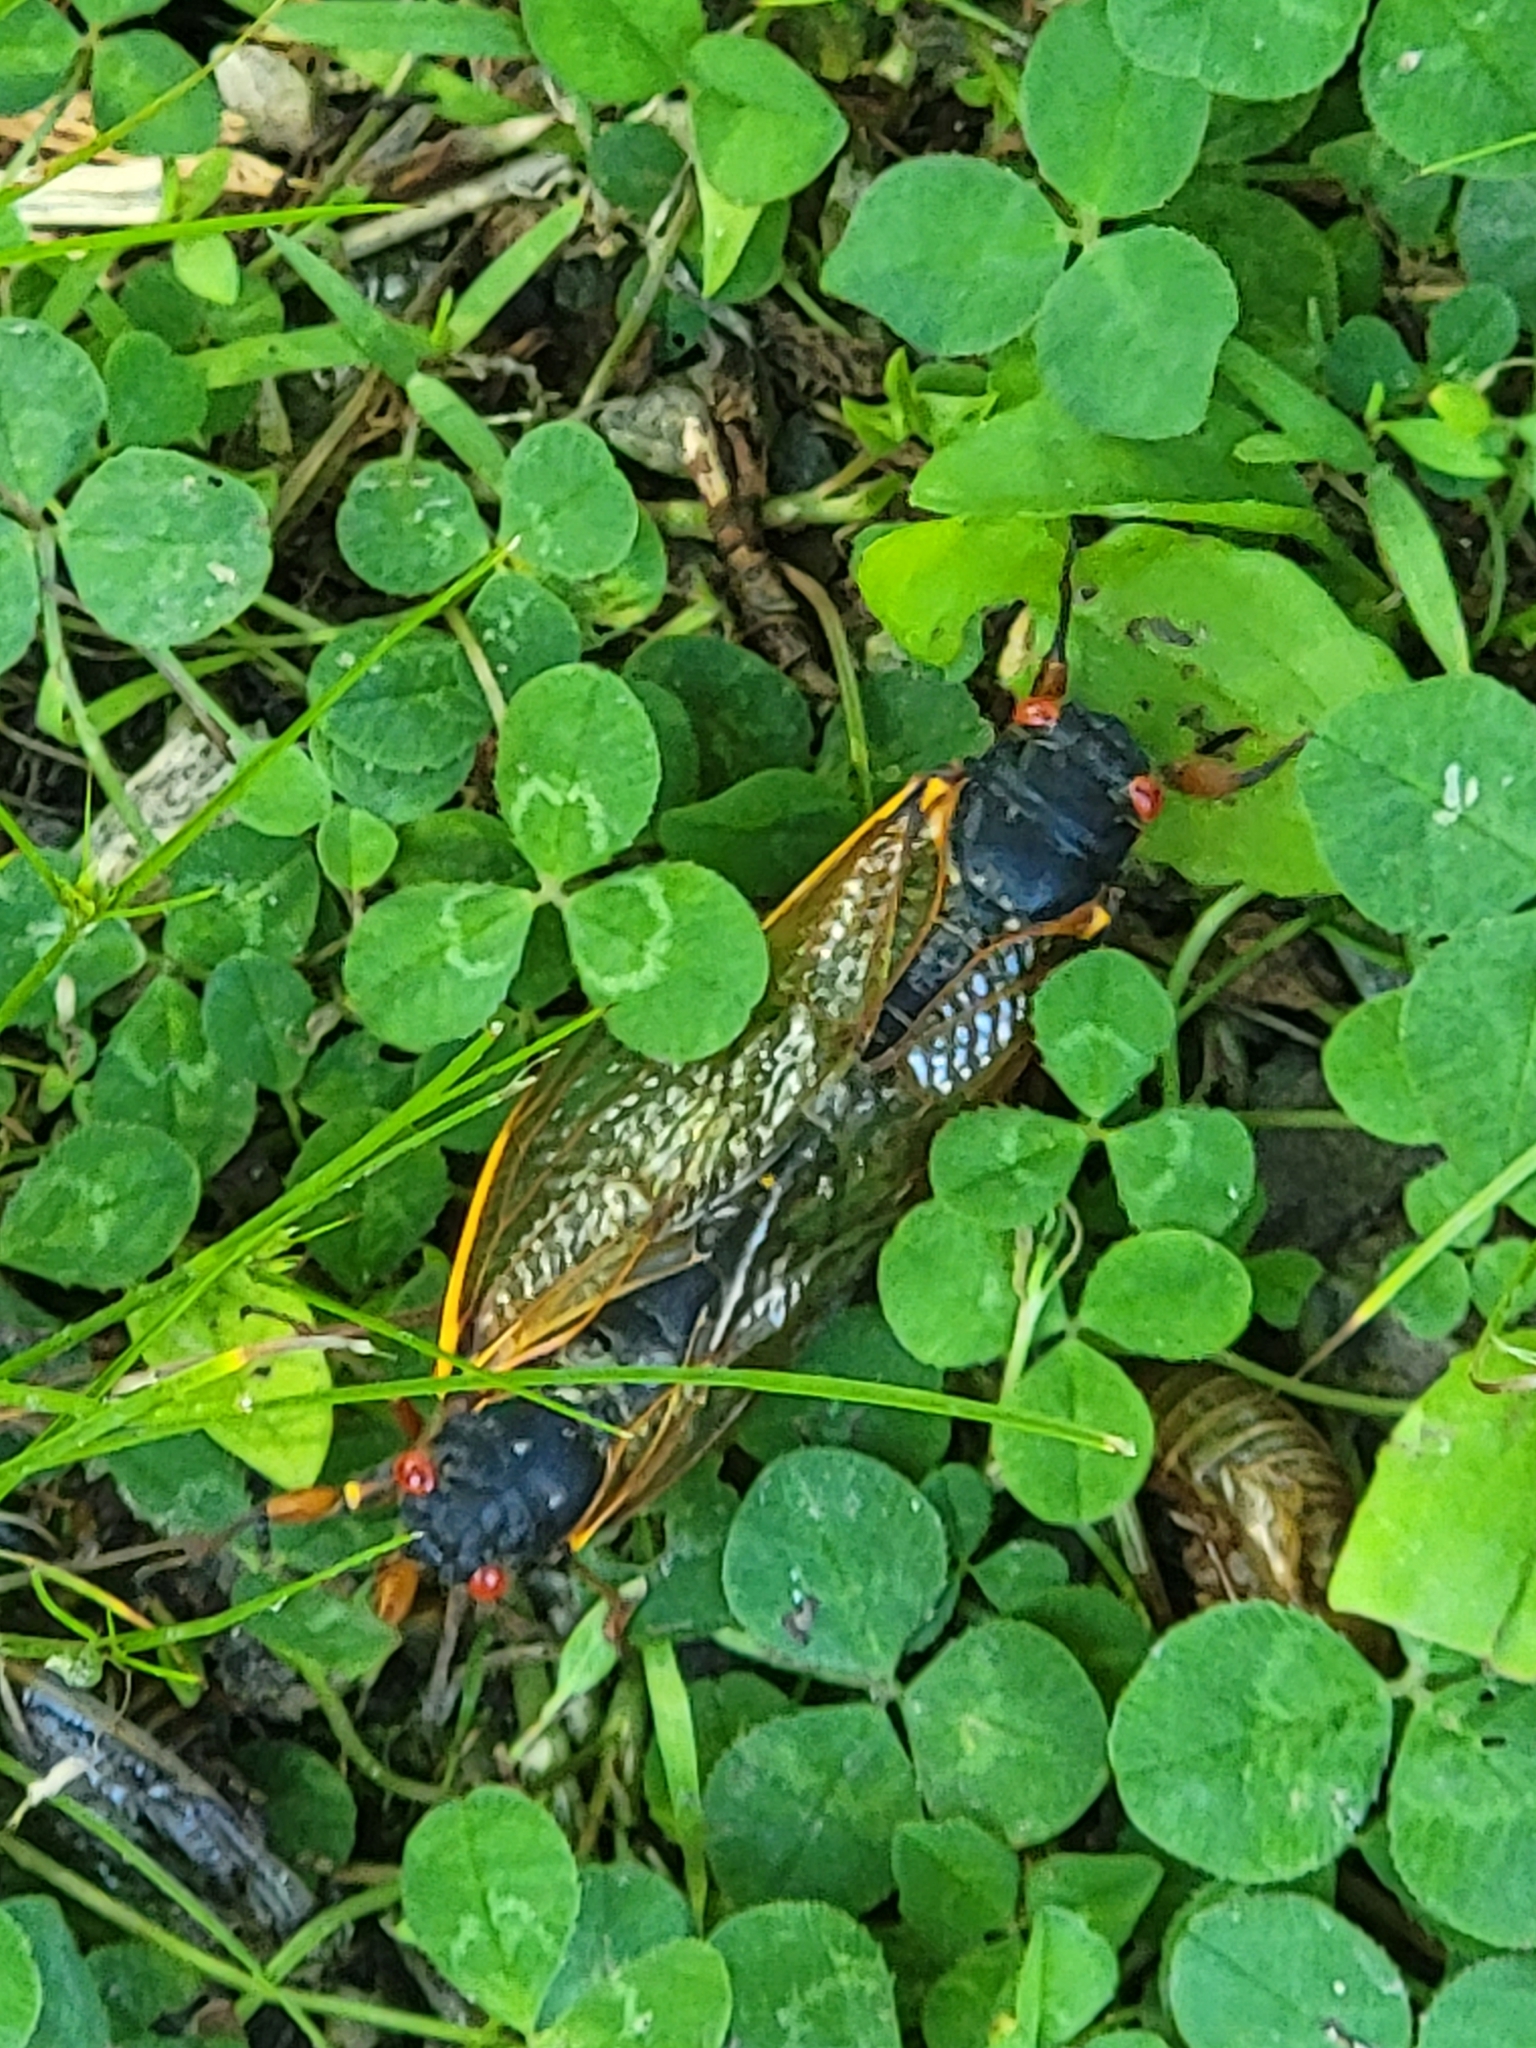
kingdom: Animalia
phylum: Arthropoda
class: Insecta
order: Hemiptera
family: Cicadidae
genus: Magicicada
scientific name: Magicicada septendecim
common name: Periodical cicada
